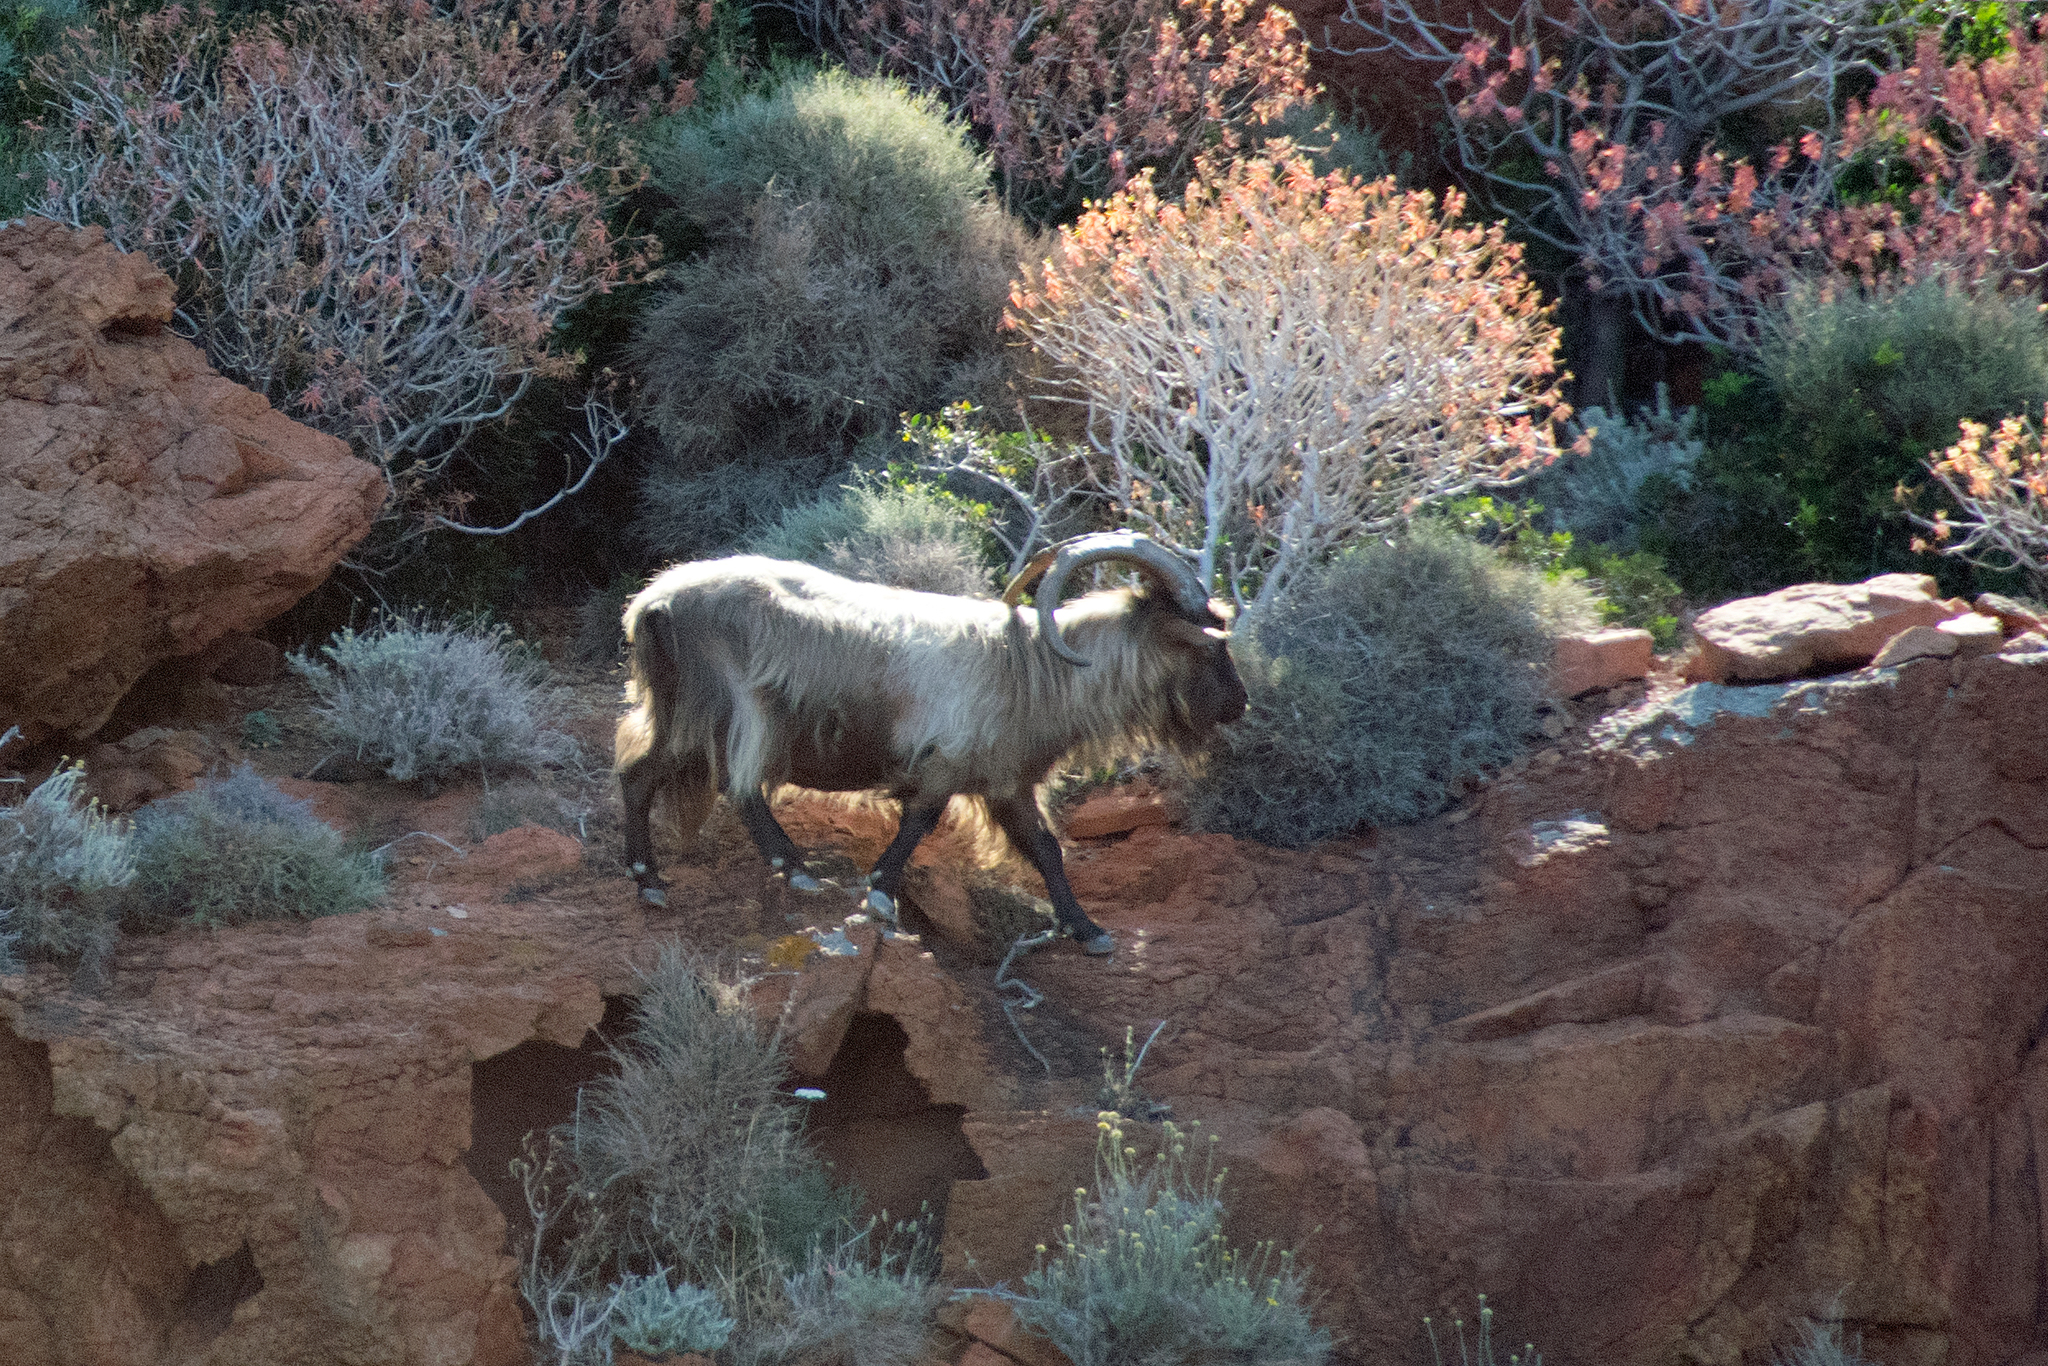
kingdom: Animalia
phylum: Chordata
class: Mammalia
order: Artiodactyla
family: Bovidae
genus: Capra
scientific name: Capra hircus
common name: Domestic goat
